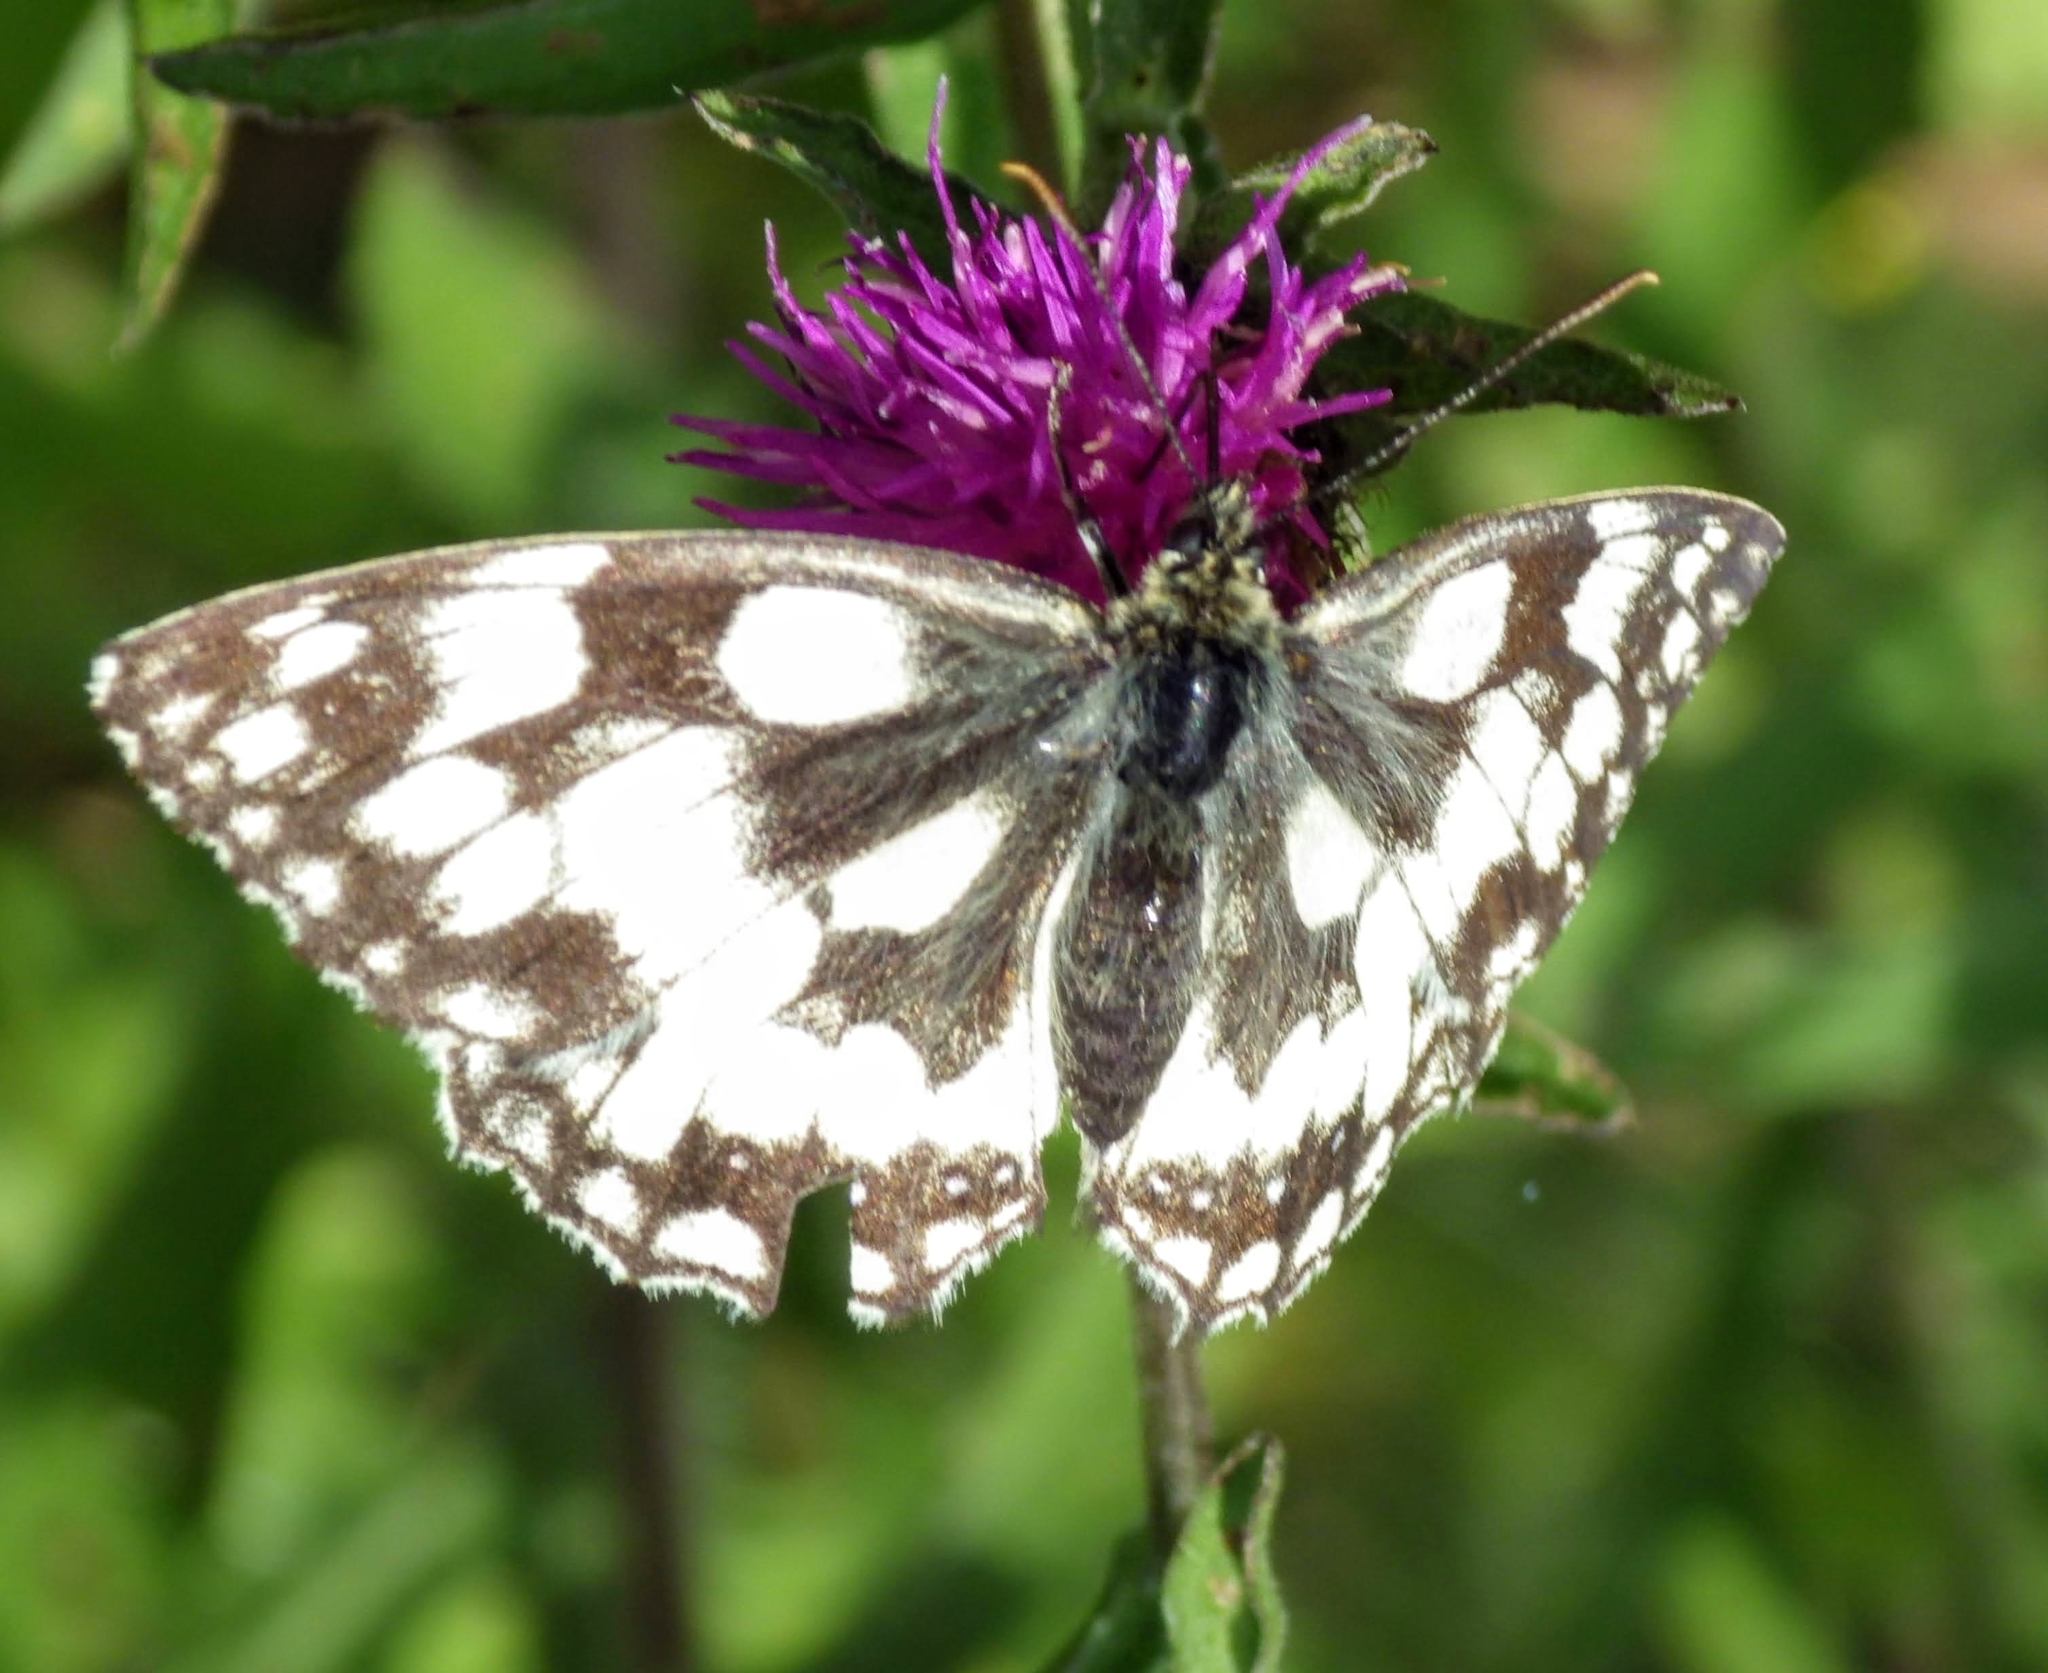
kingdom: Animalia
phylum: Arthropoda
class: Insecta
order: Lepidoptera
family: Nymphalidae
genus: Melanargia
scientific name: Melanargia galathea
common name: Marbled white
